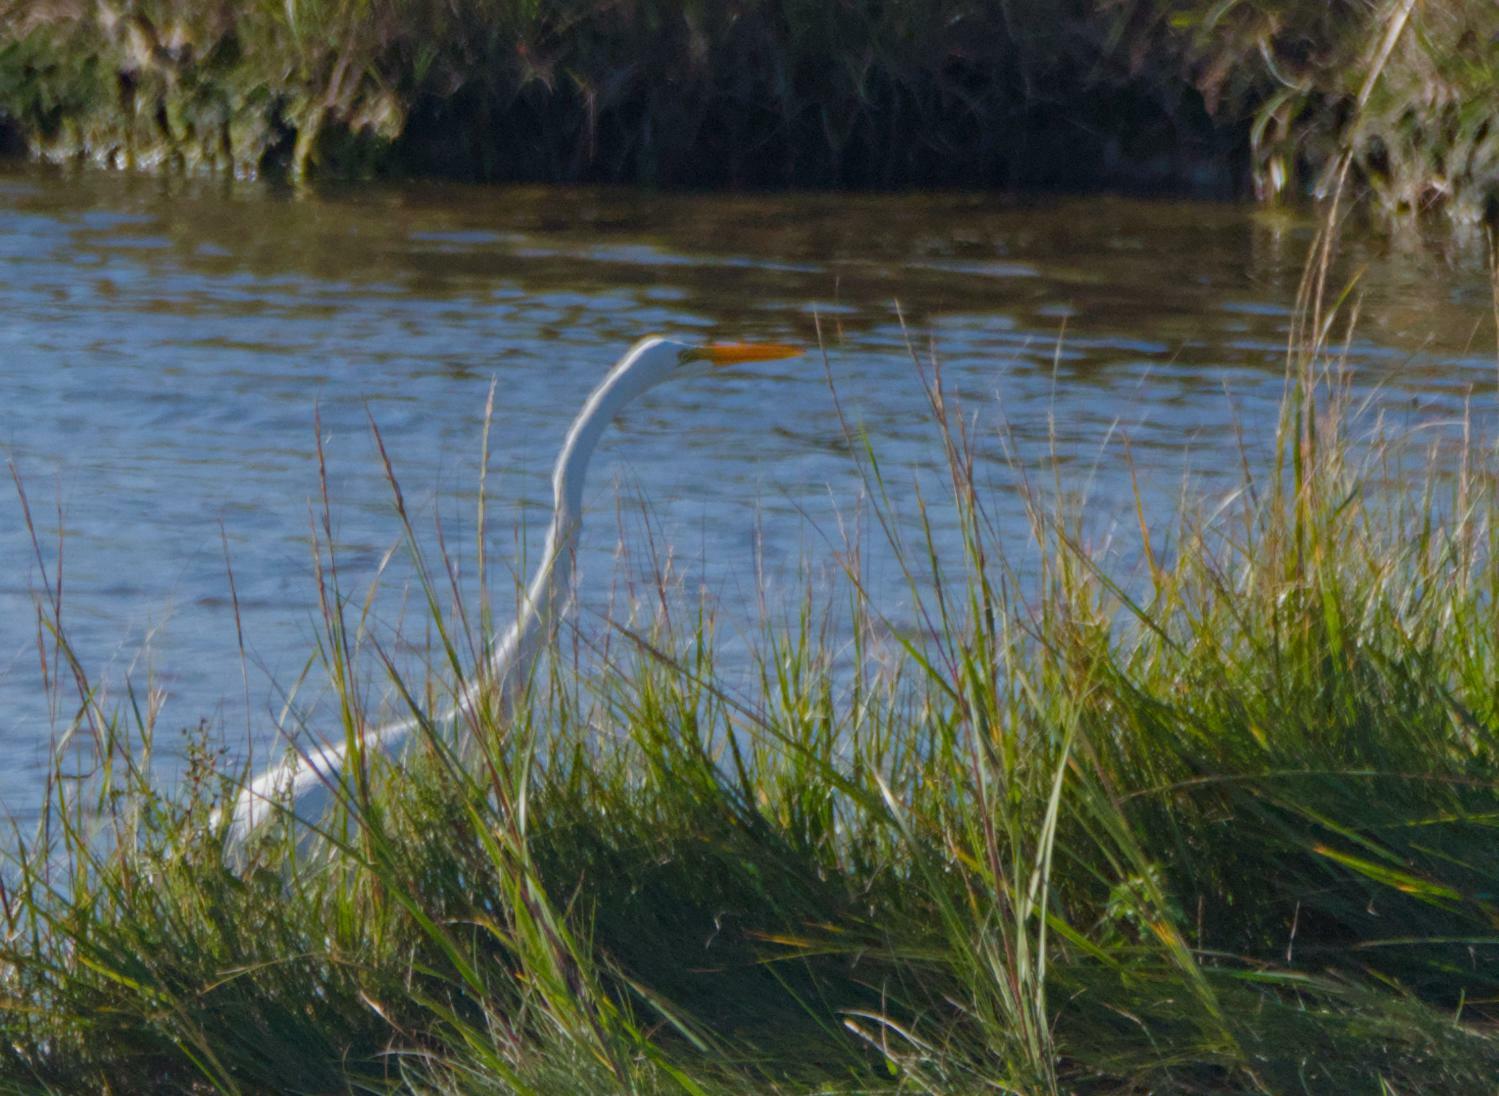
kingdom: Animalia
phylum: Chordata
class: Aves
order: Pelecaniformes
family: Ardeidae
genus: Ardea
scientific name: Ardea alba
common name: Great egret
